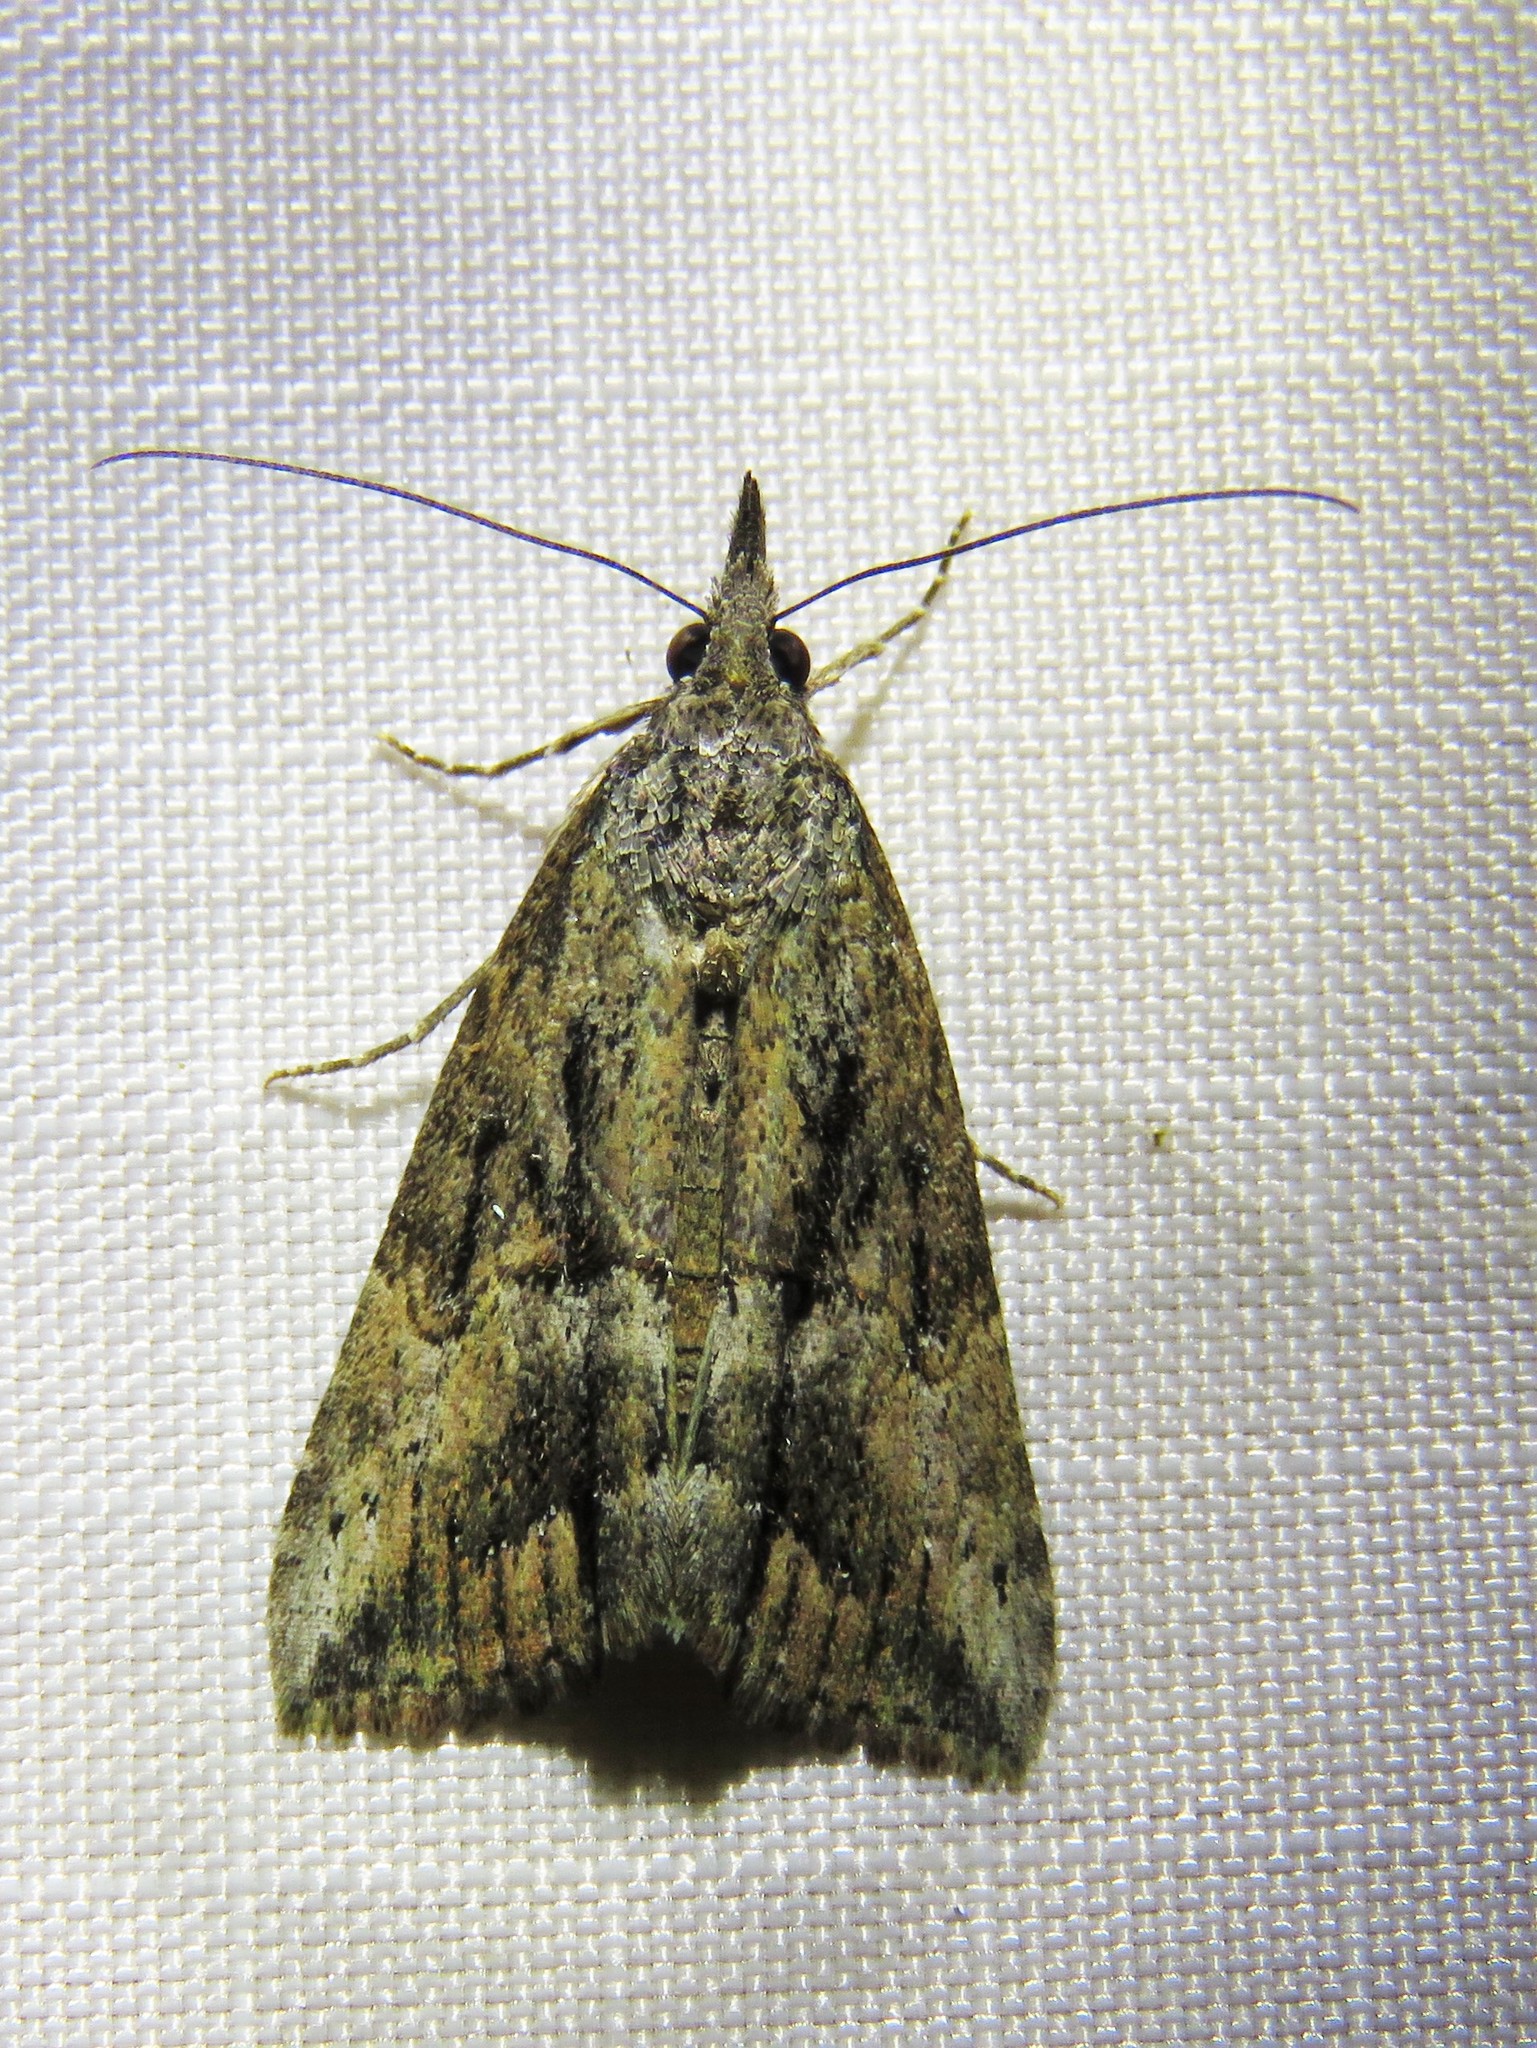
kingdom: Animalia
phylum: Arthropoda
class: Insecta
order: Lepidoptera
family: Erebidae
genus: Hypena
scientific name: Hypena scabra
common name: Green cloverworm
